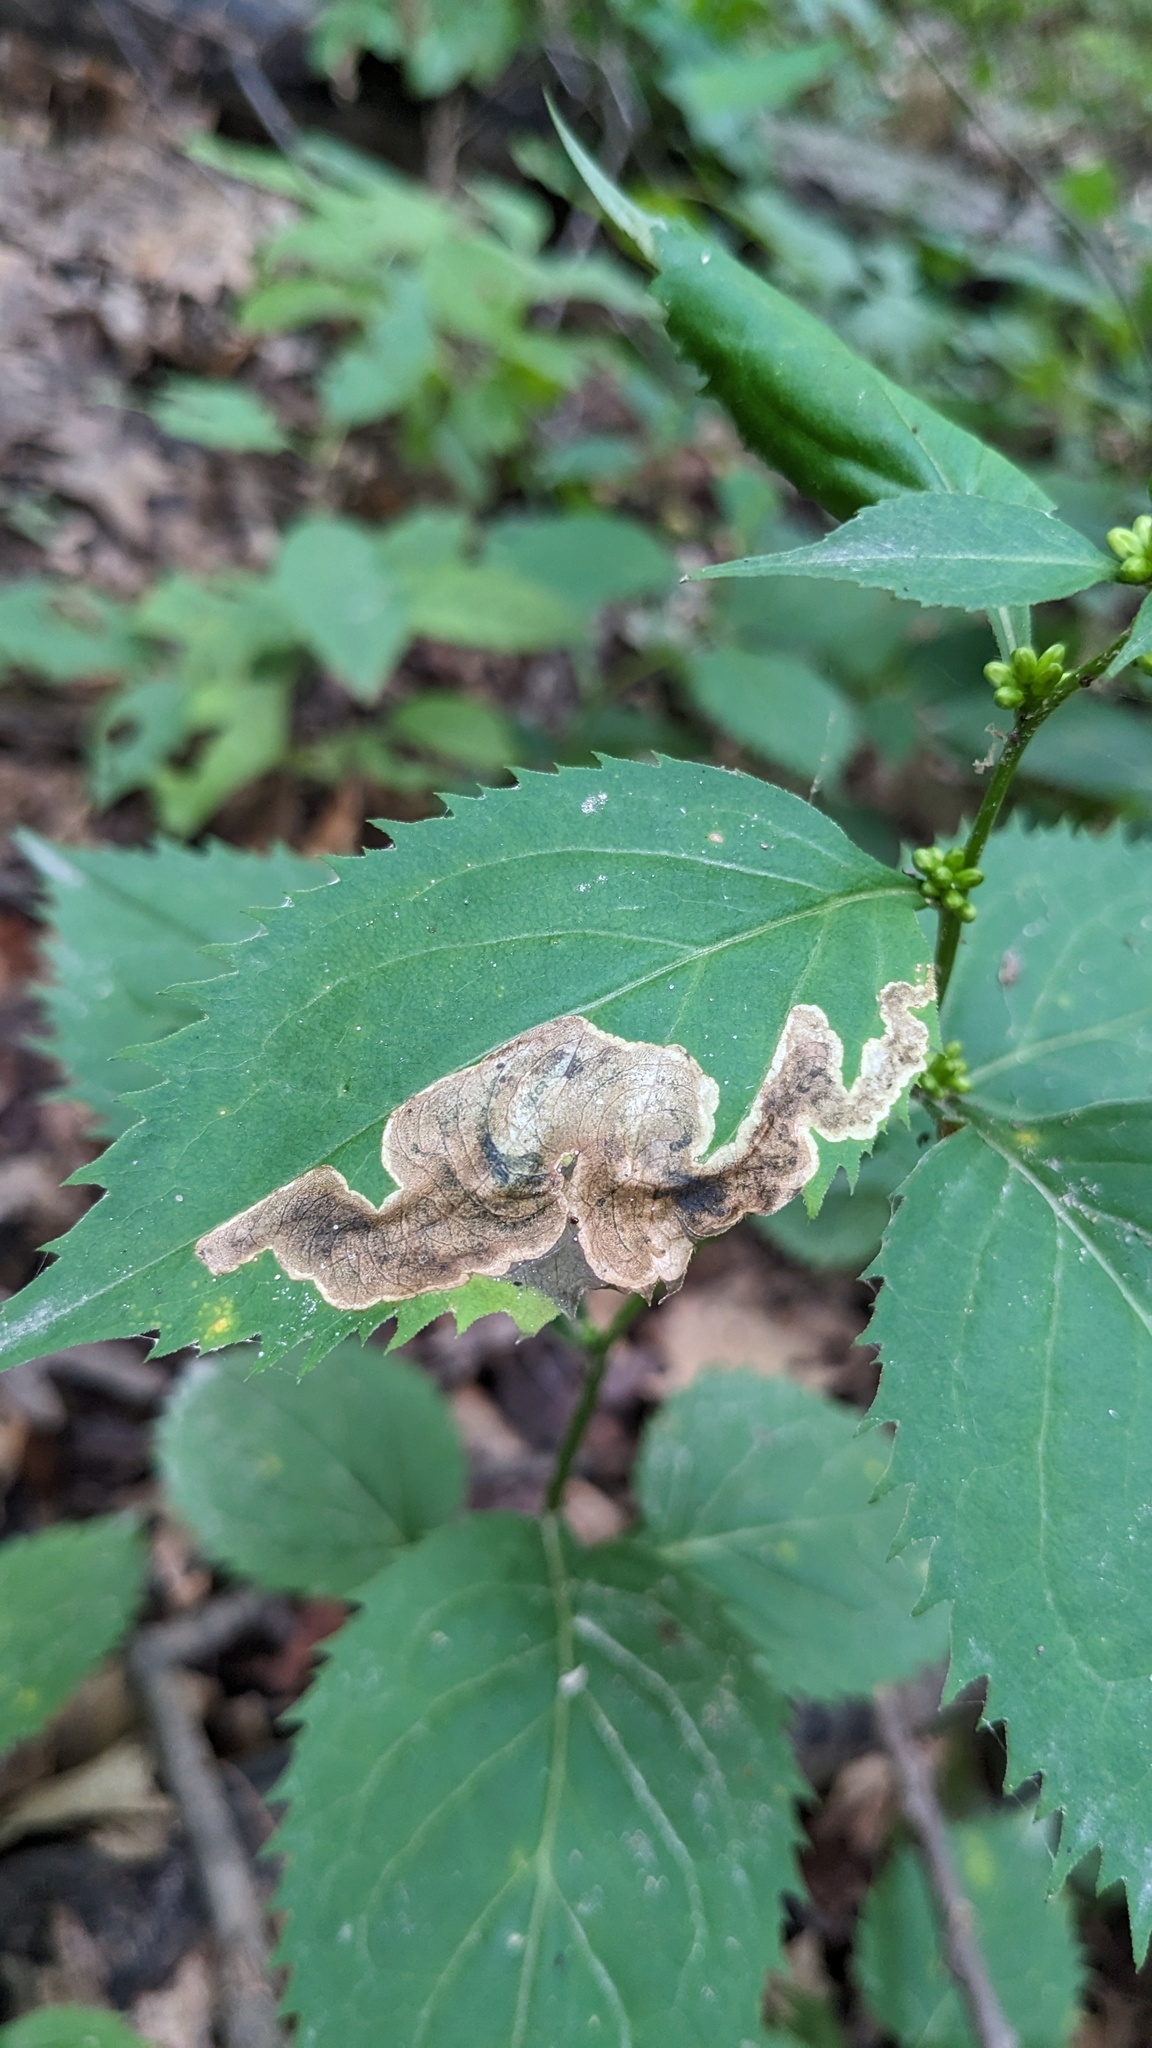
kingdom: Animalia
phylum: Arthropoda
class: Insecta
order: Diptera
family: Agromyzidae
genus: Nemorimyza
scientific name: Nemorimyza posticata
